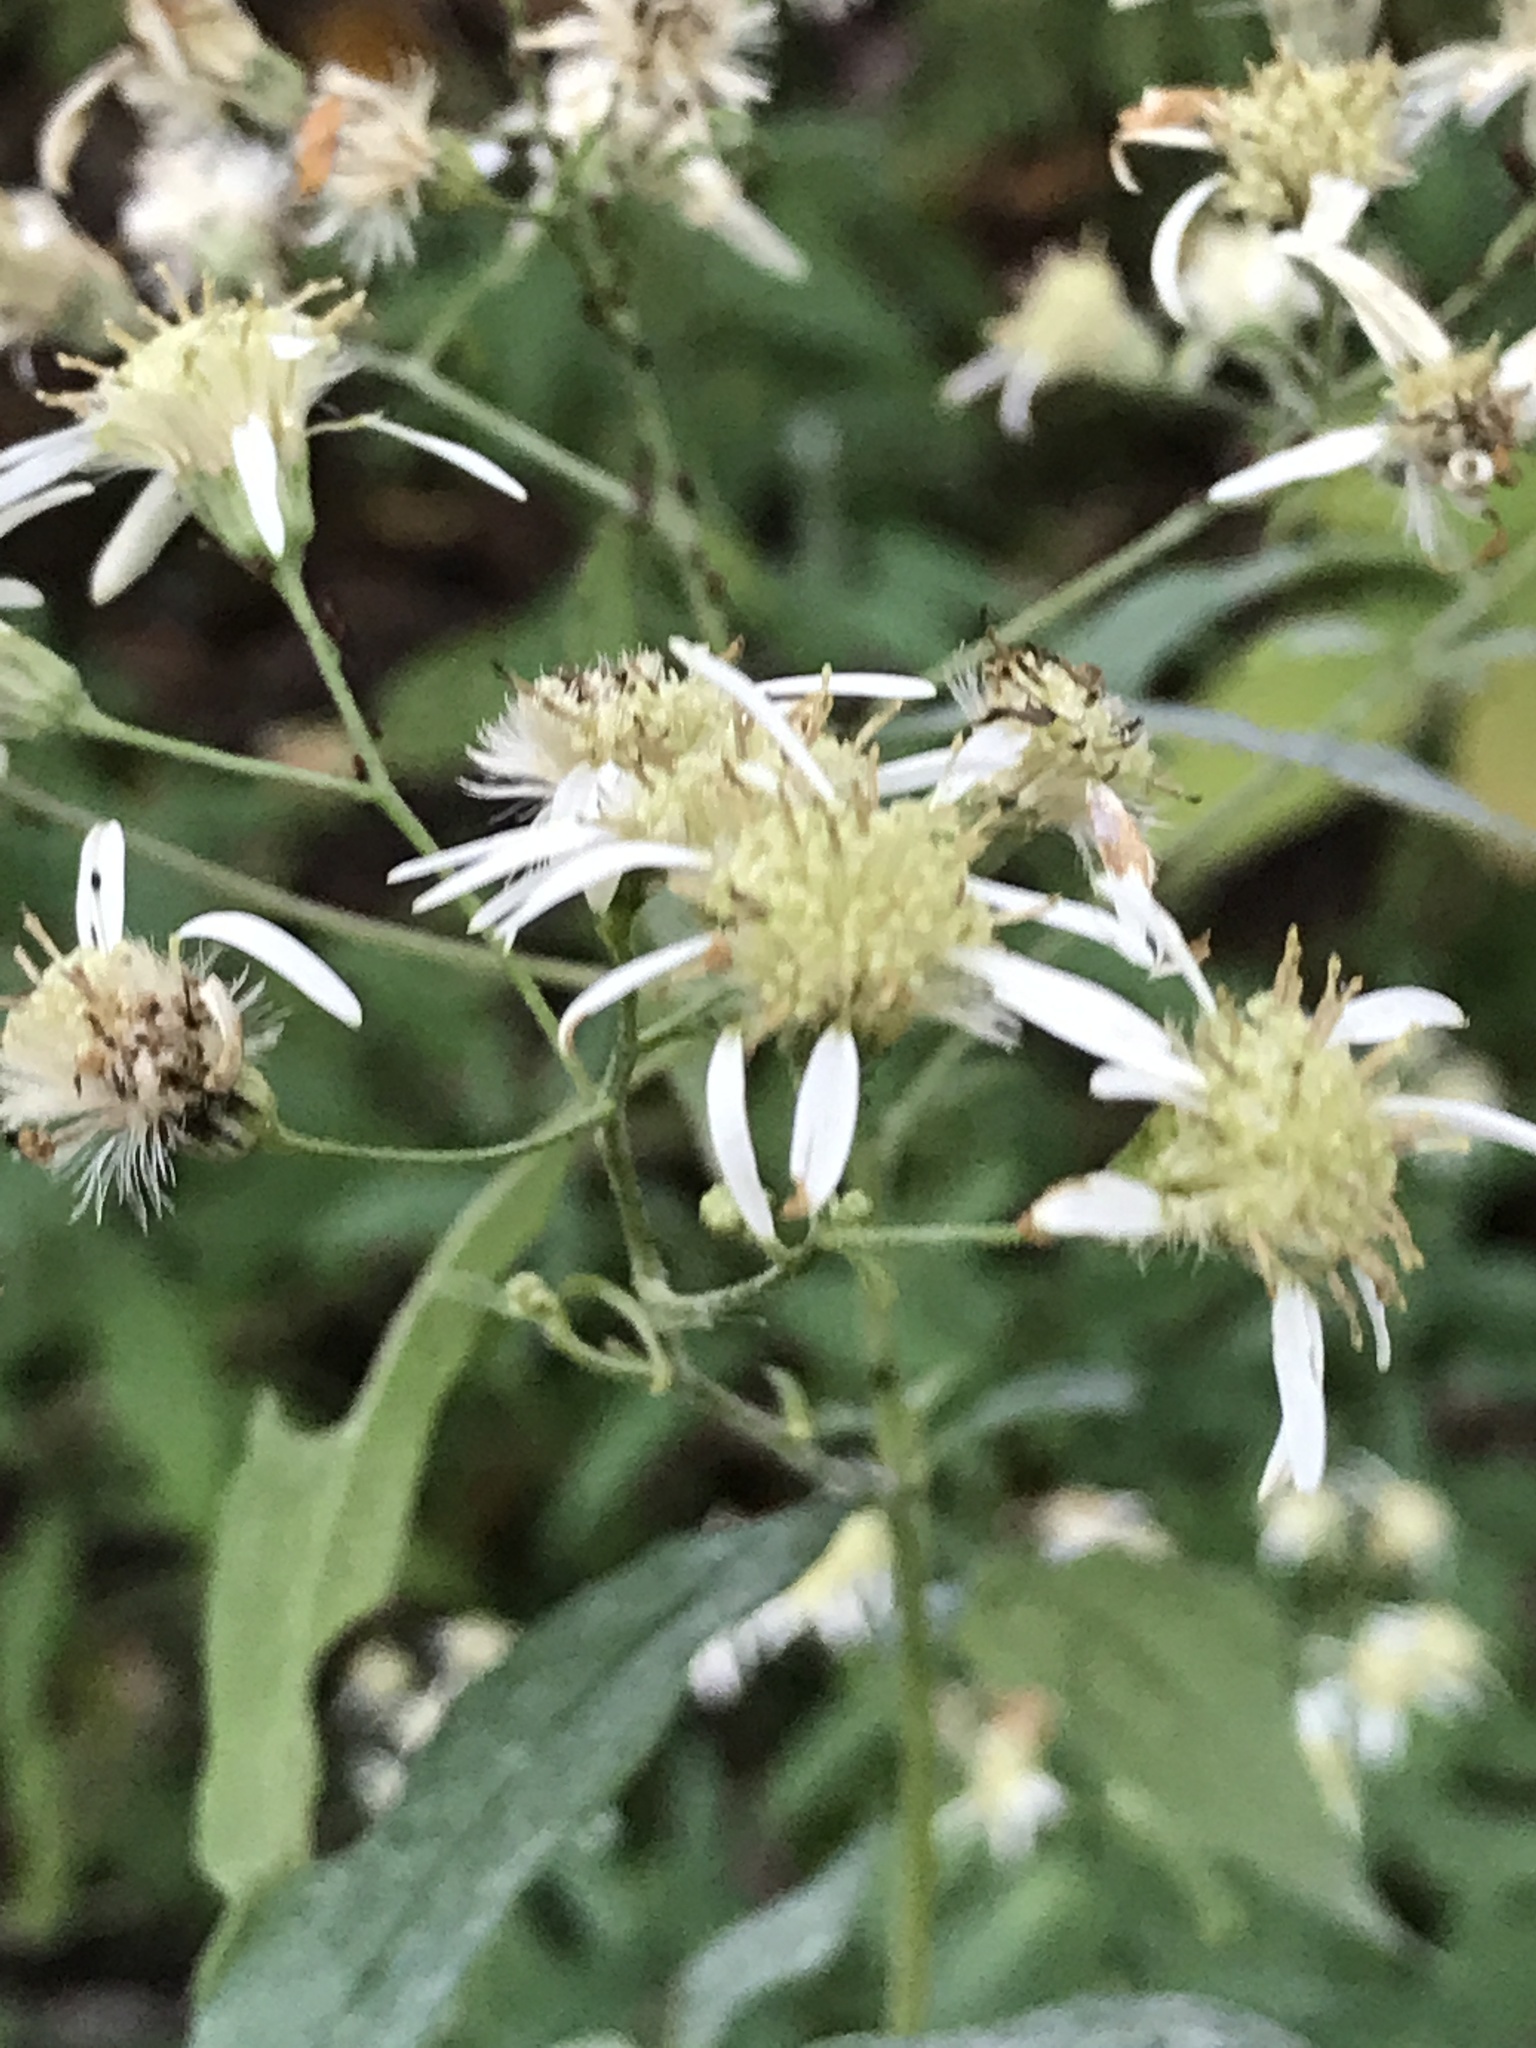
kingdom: Plantae
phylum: Tracheophyta
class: Magnoliopsida
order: Asterales
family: Asteraceae
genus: Doellingeria
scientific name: Doellingeria umbellata
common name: Flat-top white aster
